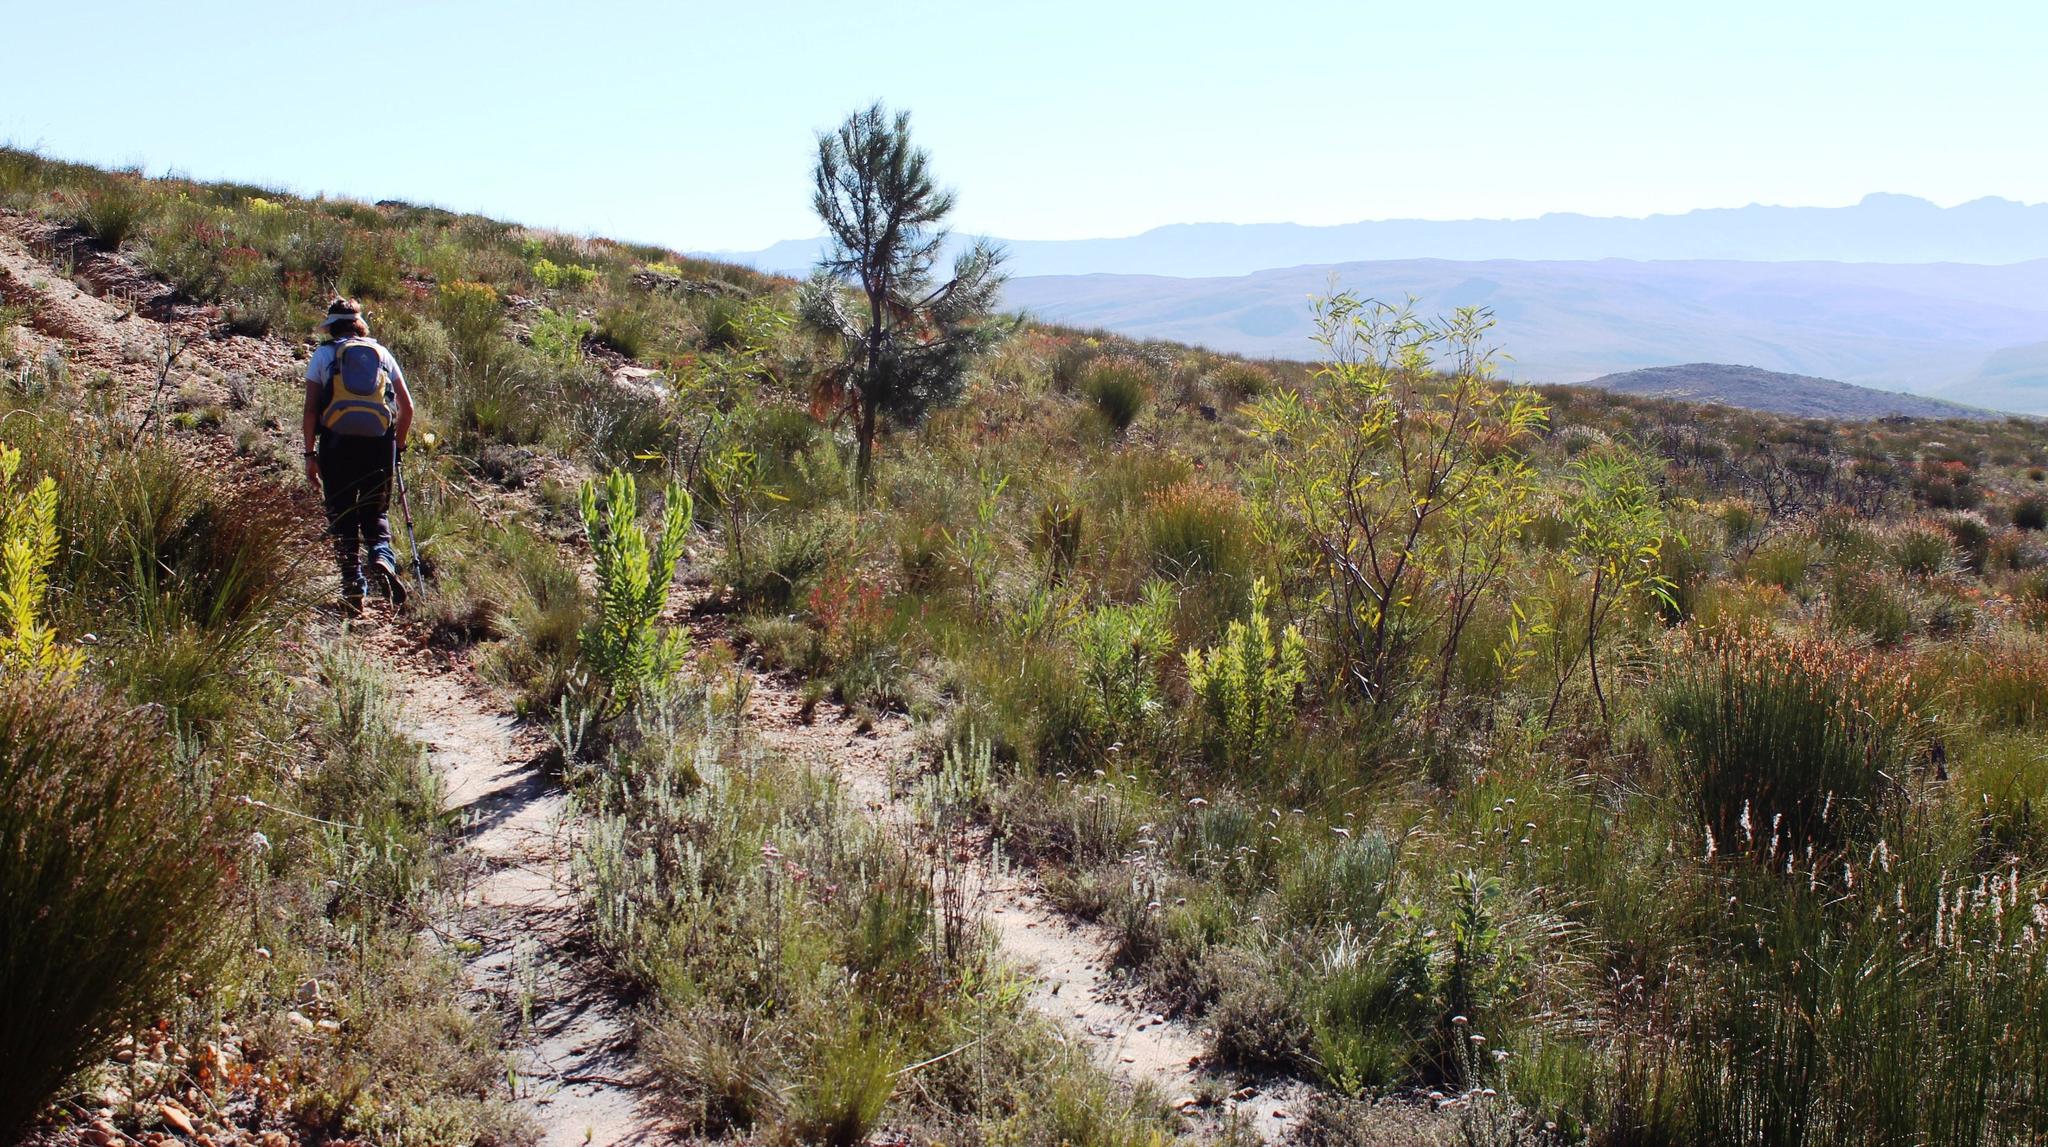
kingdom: Plantae
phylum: Tracheophyta
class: Pinopsida
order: Pinales
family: Pinaceae
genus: Pinus
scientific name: Pinus pinaster
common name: Maritime pine
